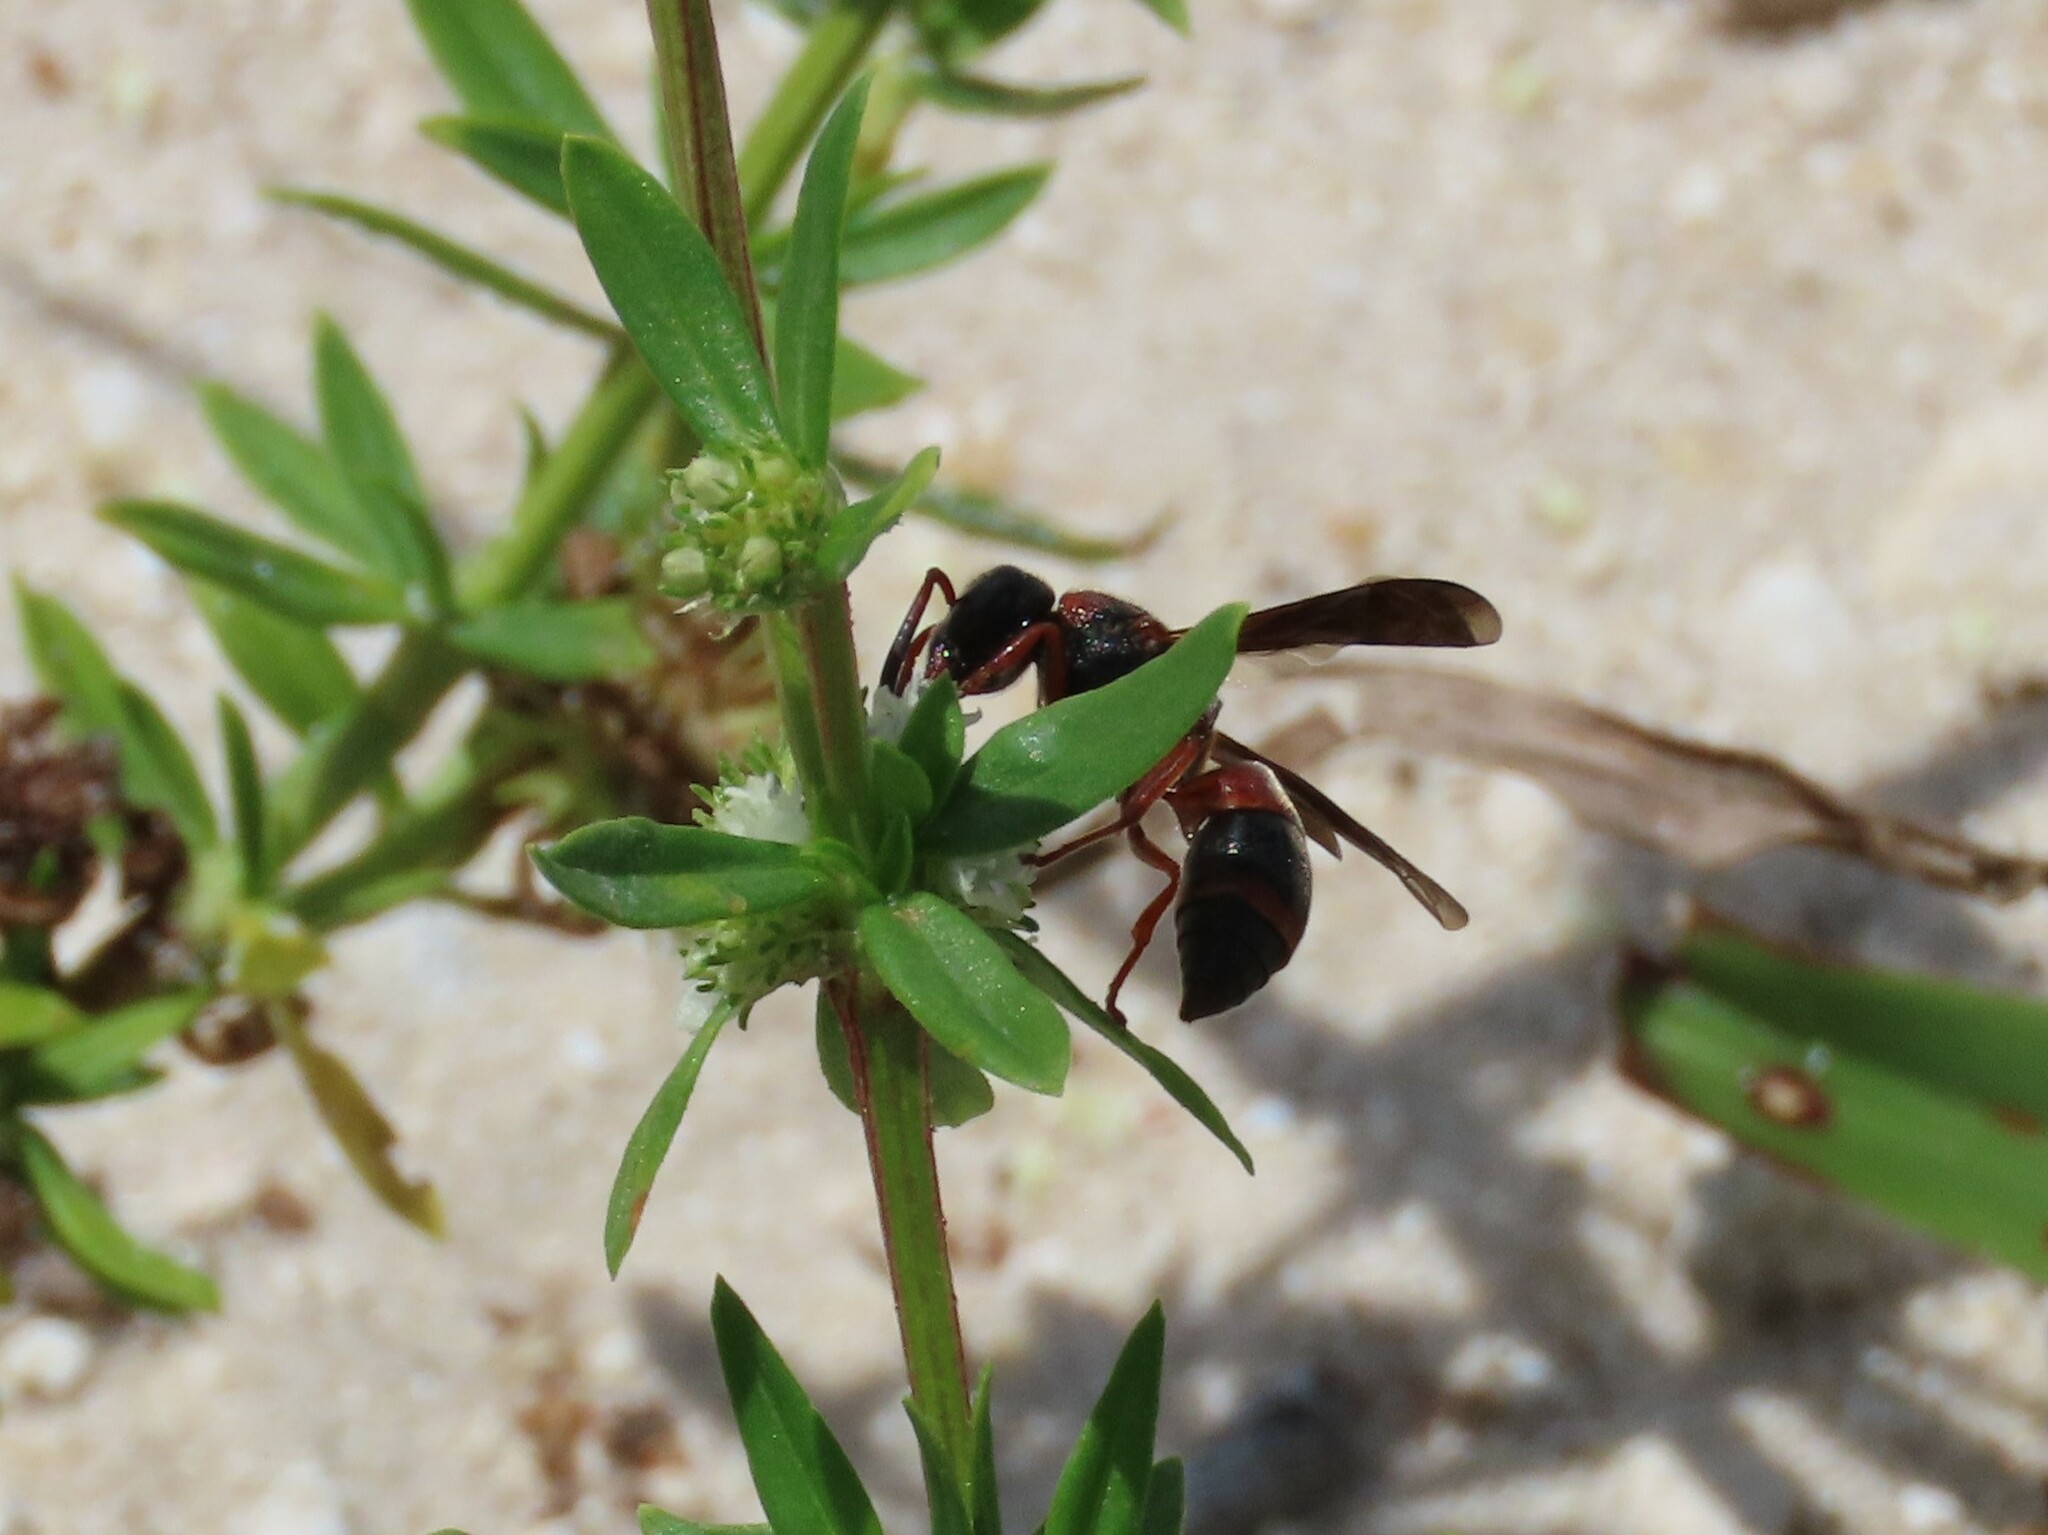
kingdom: Animalia
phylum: Arthropoda
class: Insecta
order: Hymenoptera
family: Eumenidae
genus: Pachodynerus
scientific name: Pachodynerus erynnis
